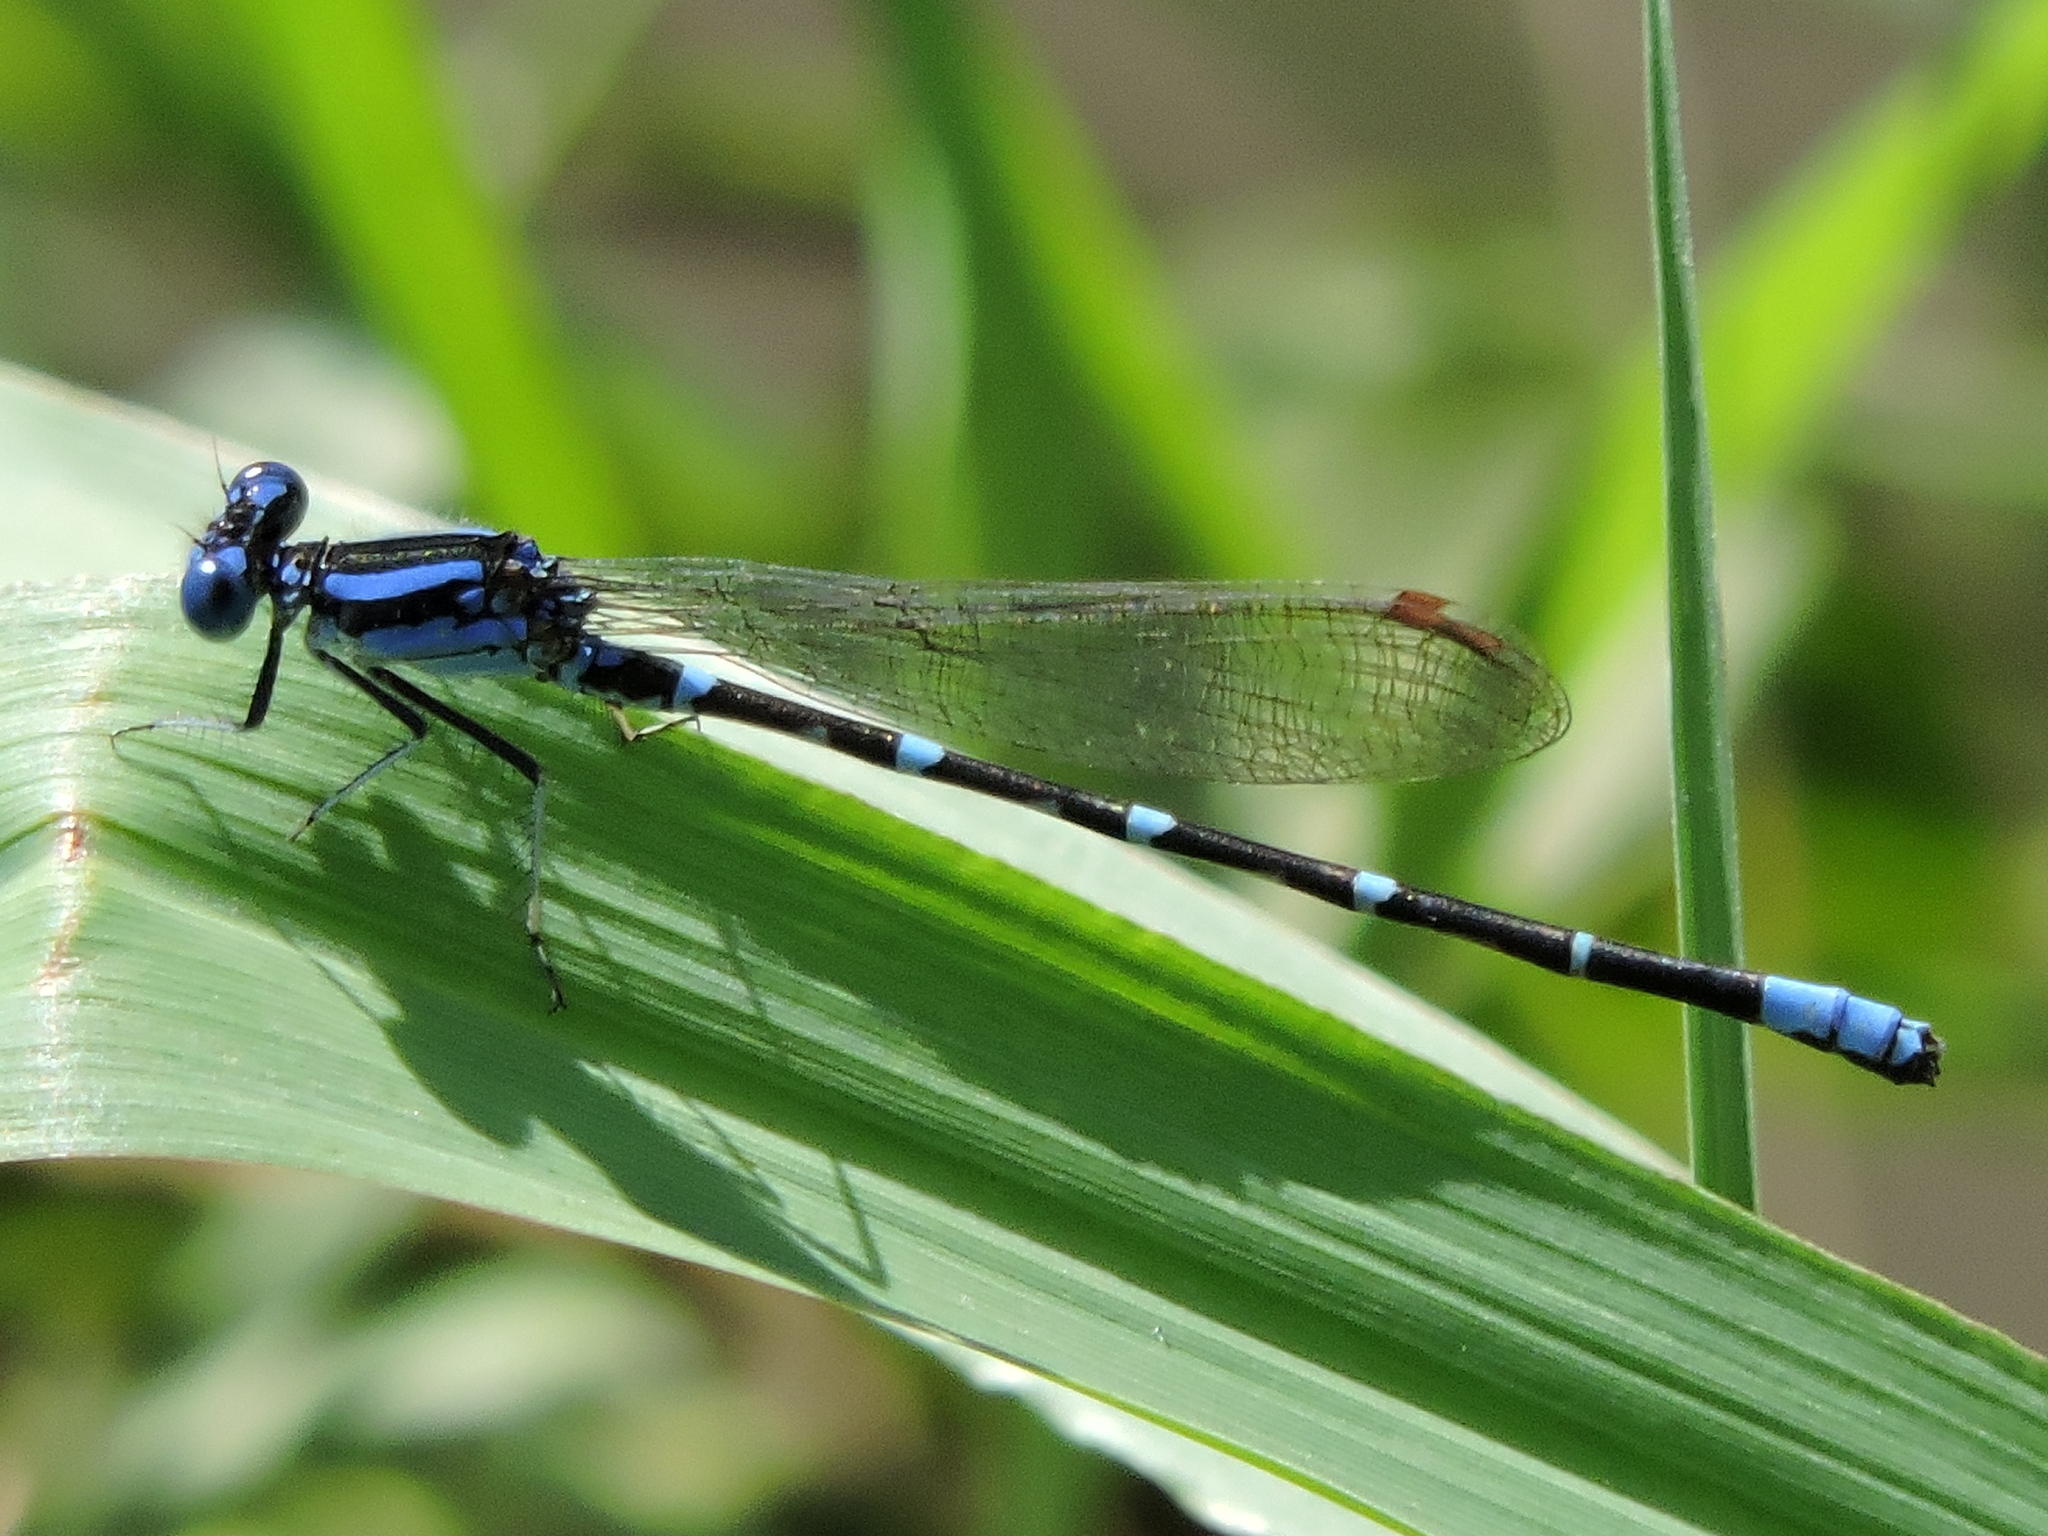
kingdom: Animalia
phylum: Arthropoda
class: Insecta
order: Odonata
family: Coenagrionidae
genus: Argia
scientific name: Argia sedula
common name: Blue-ringed dancer
